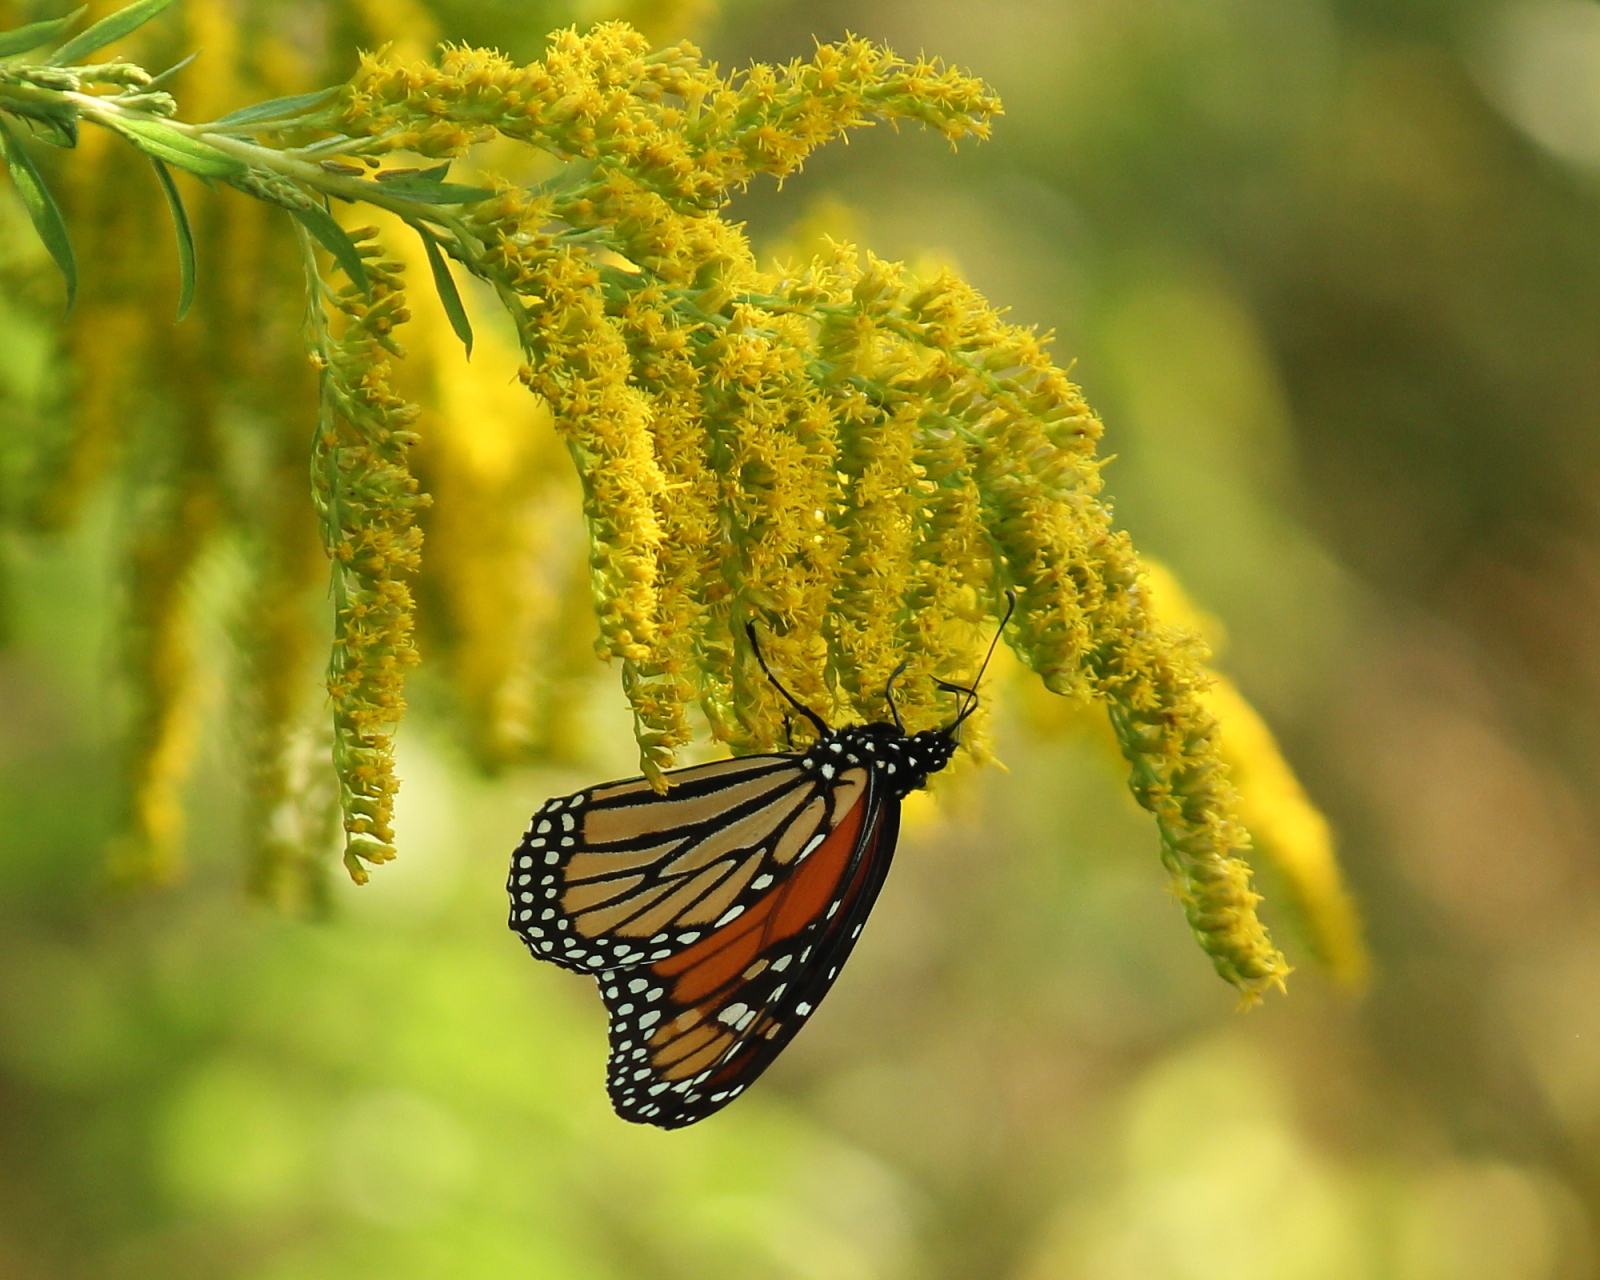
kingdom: Animalia
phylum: Arthropoda
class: Insecta
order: Lepidoptera
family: Nymphalidae
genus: Danaus
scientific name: Danaus plexippus
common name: Monarch
